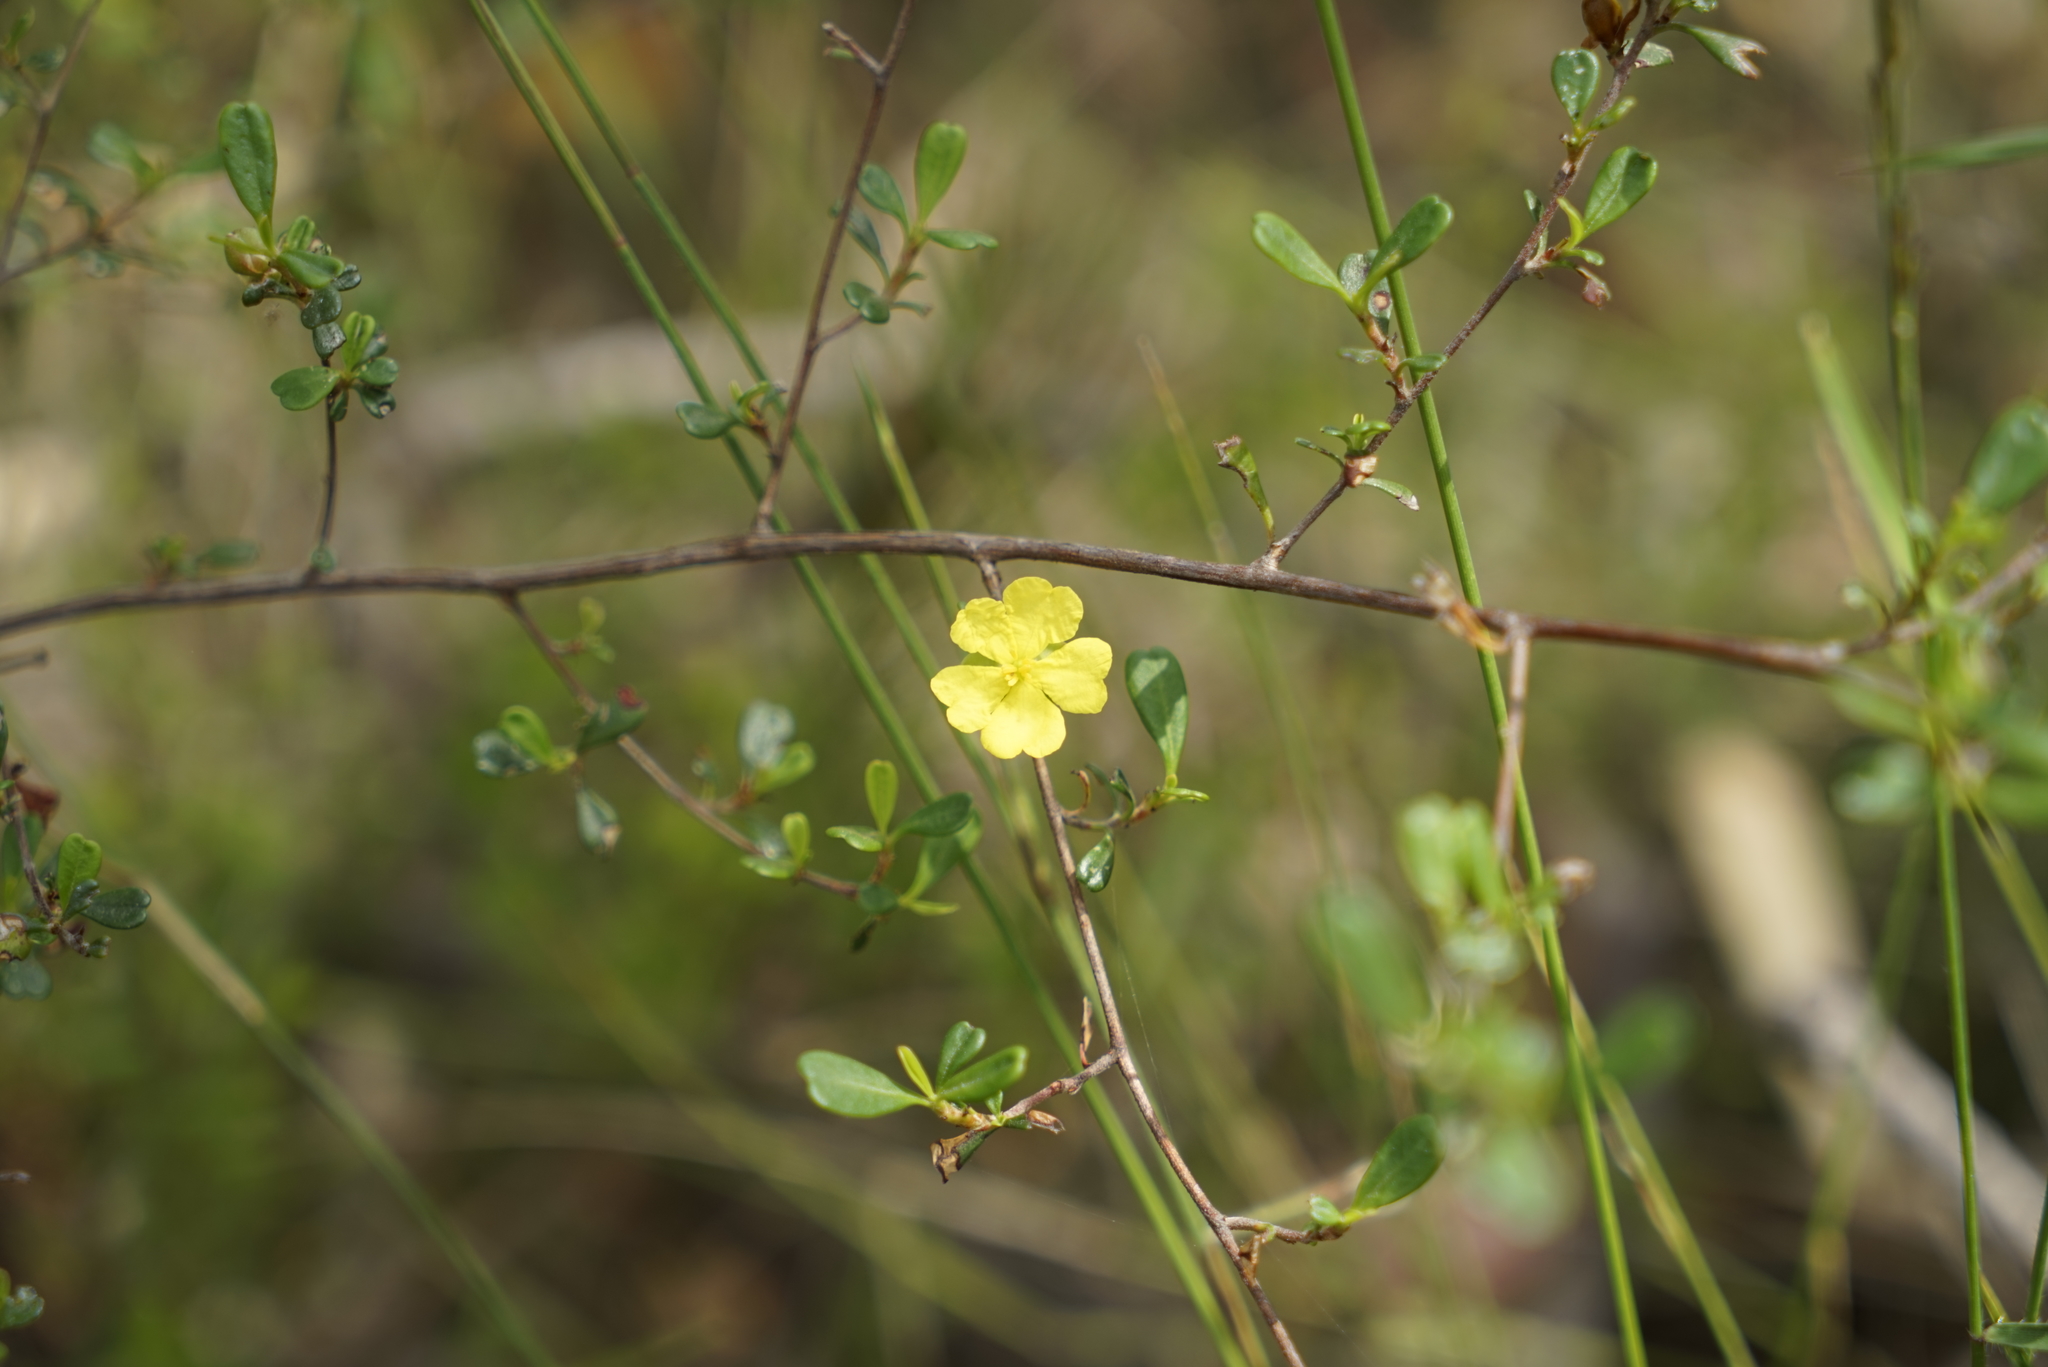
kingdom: Plantae
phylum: Tracheophyta
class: Magnoliopsida
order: Dilleniales
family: Dilleniaceae
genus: Hibbertia
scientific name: Hibbertia monogyna
